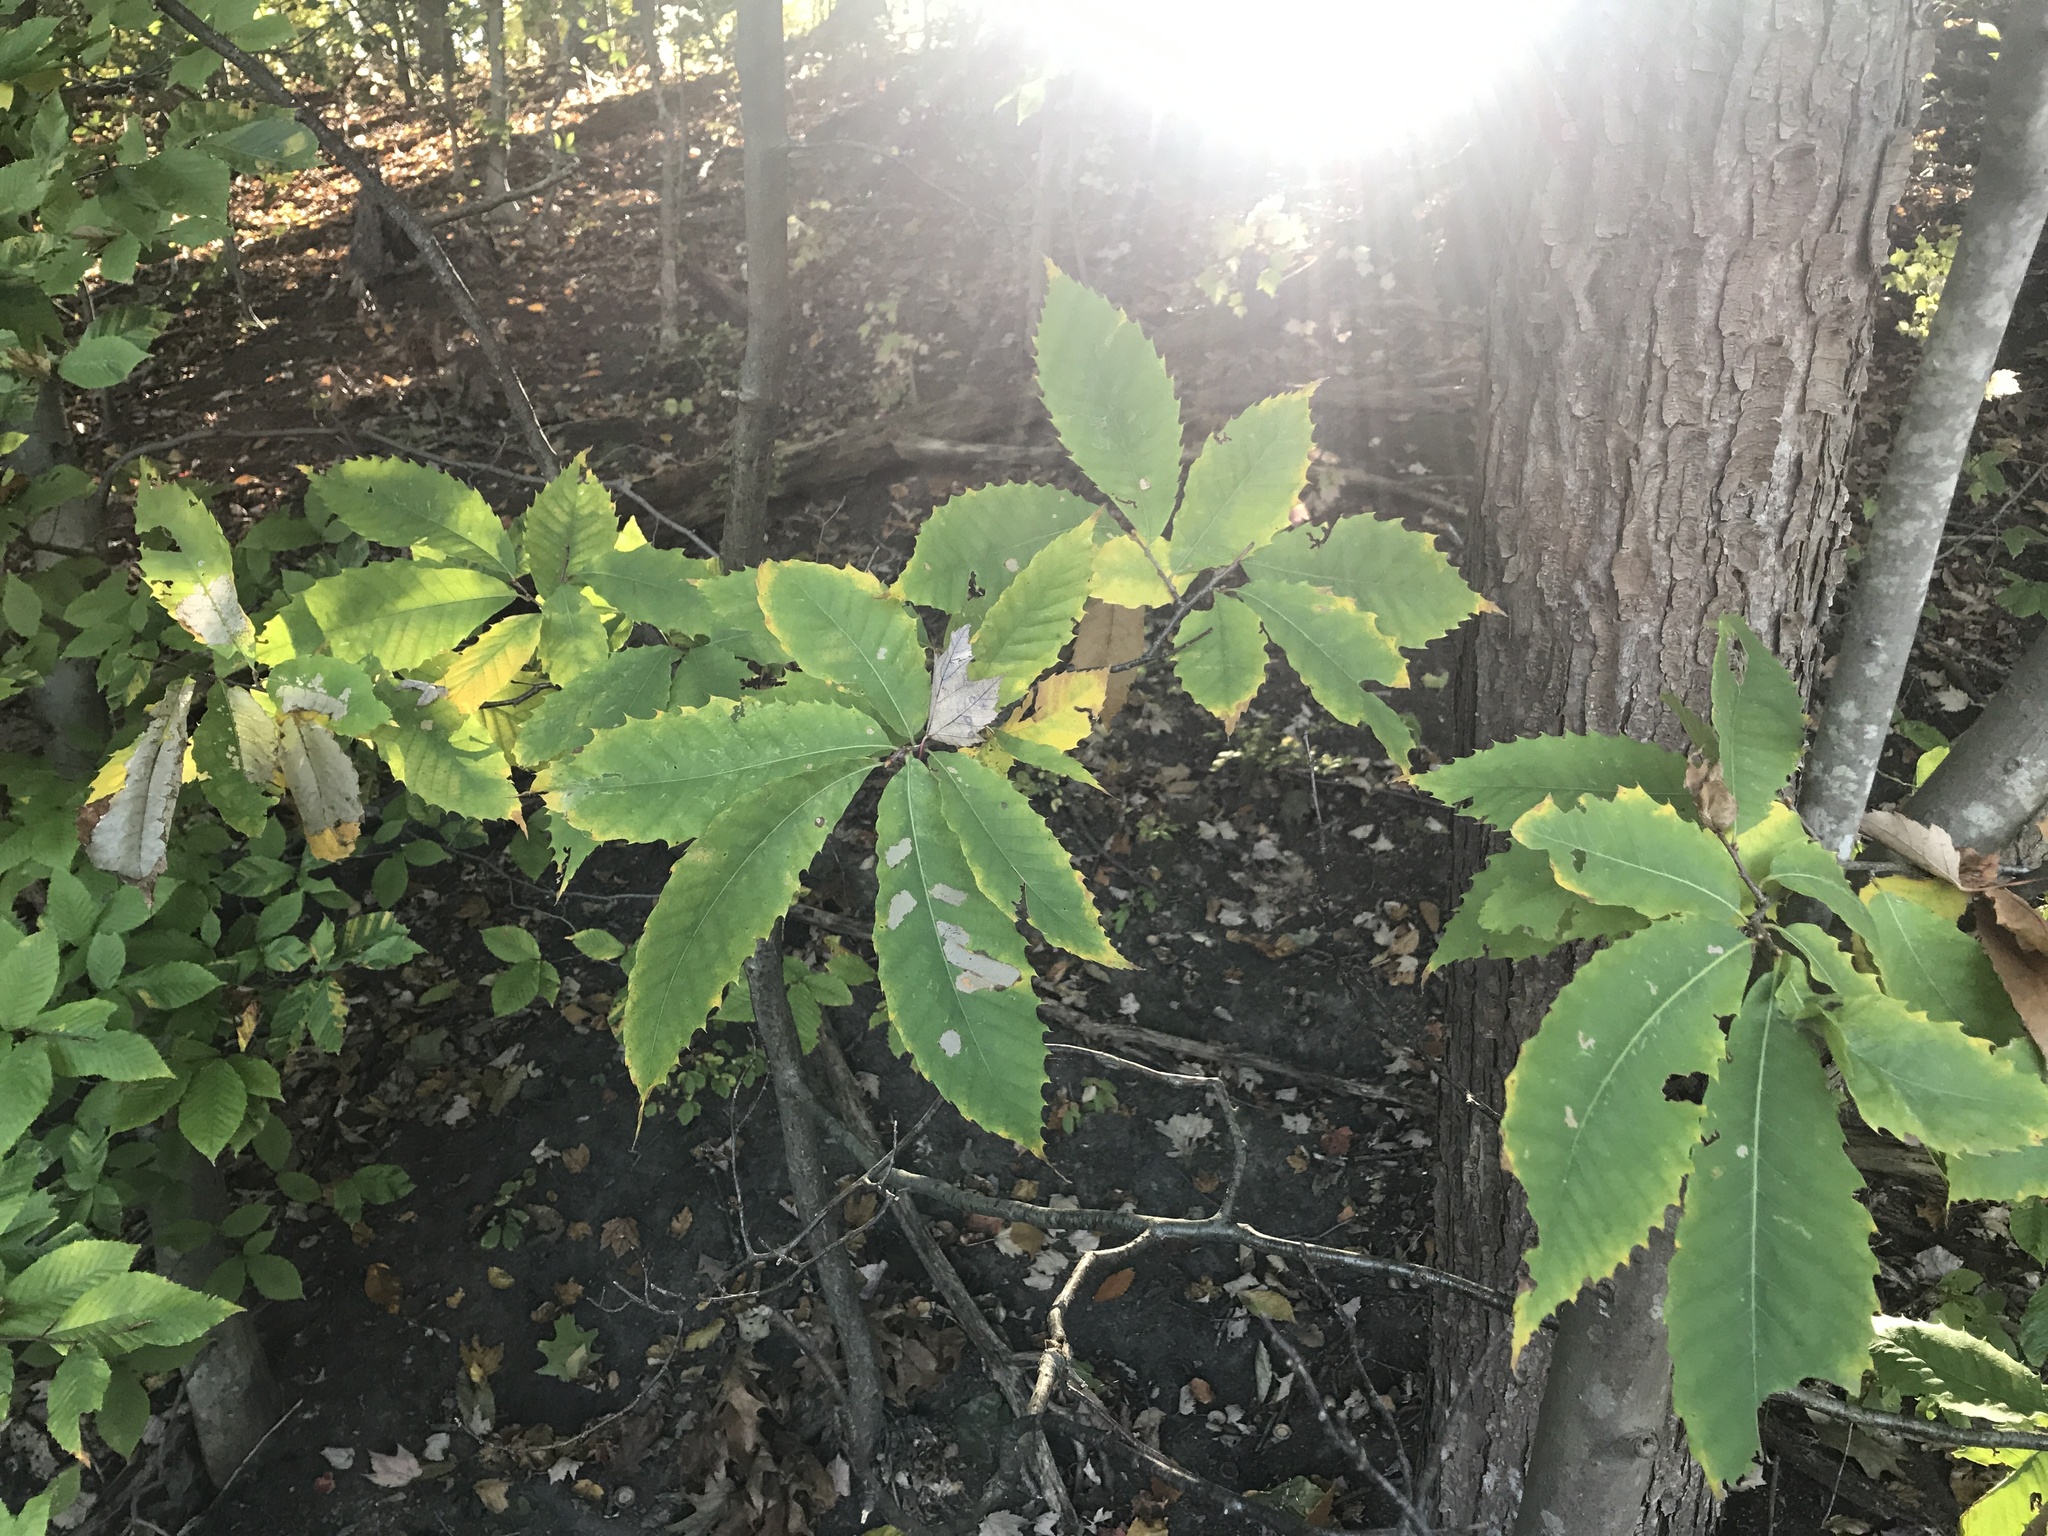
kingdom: Plantae
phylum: Tracheophyta
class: Magnoliopsida
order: Fagales
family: Fagaceae
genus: Castanea
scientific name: Castanea dentata
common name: American chestnut
